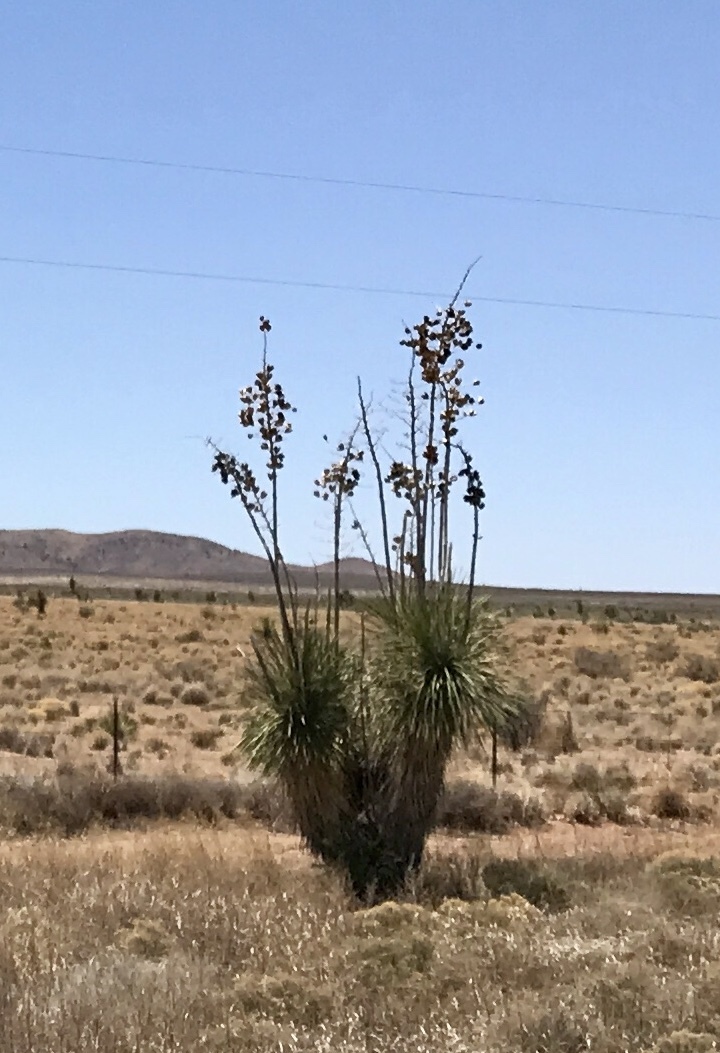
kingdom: Plantae
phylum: Tracheophyta
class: Liliopsida
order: Asparagales
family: Asparagaceae
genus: Yucca
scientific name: Yucca elata
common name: Palmella
